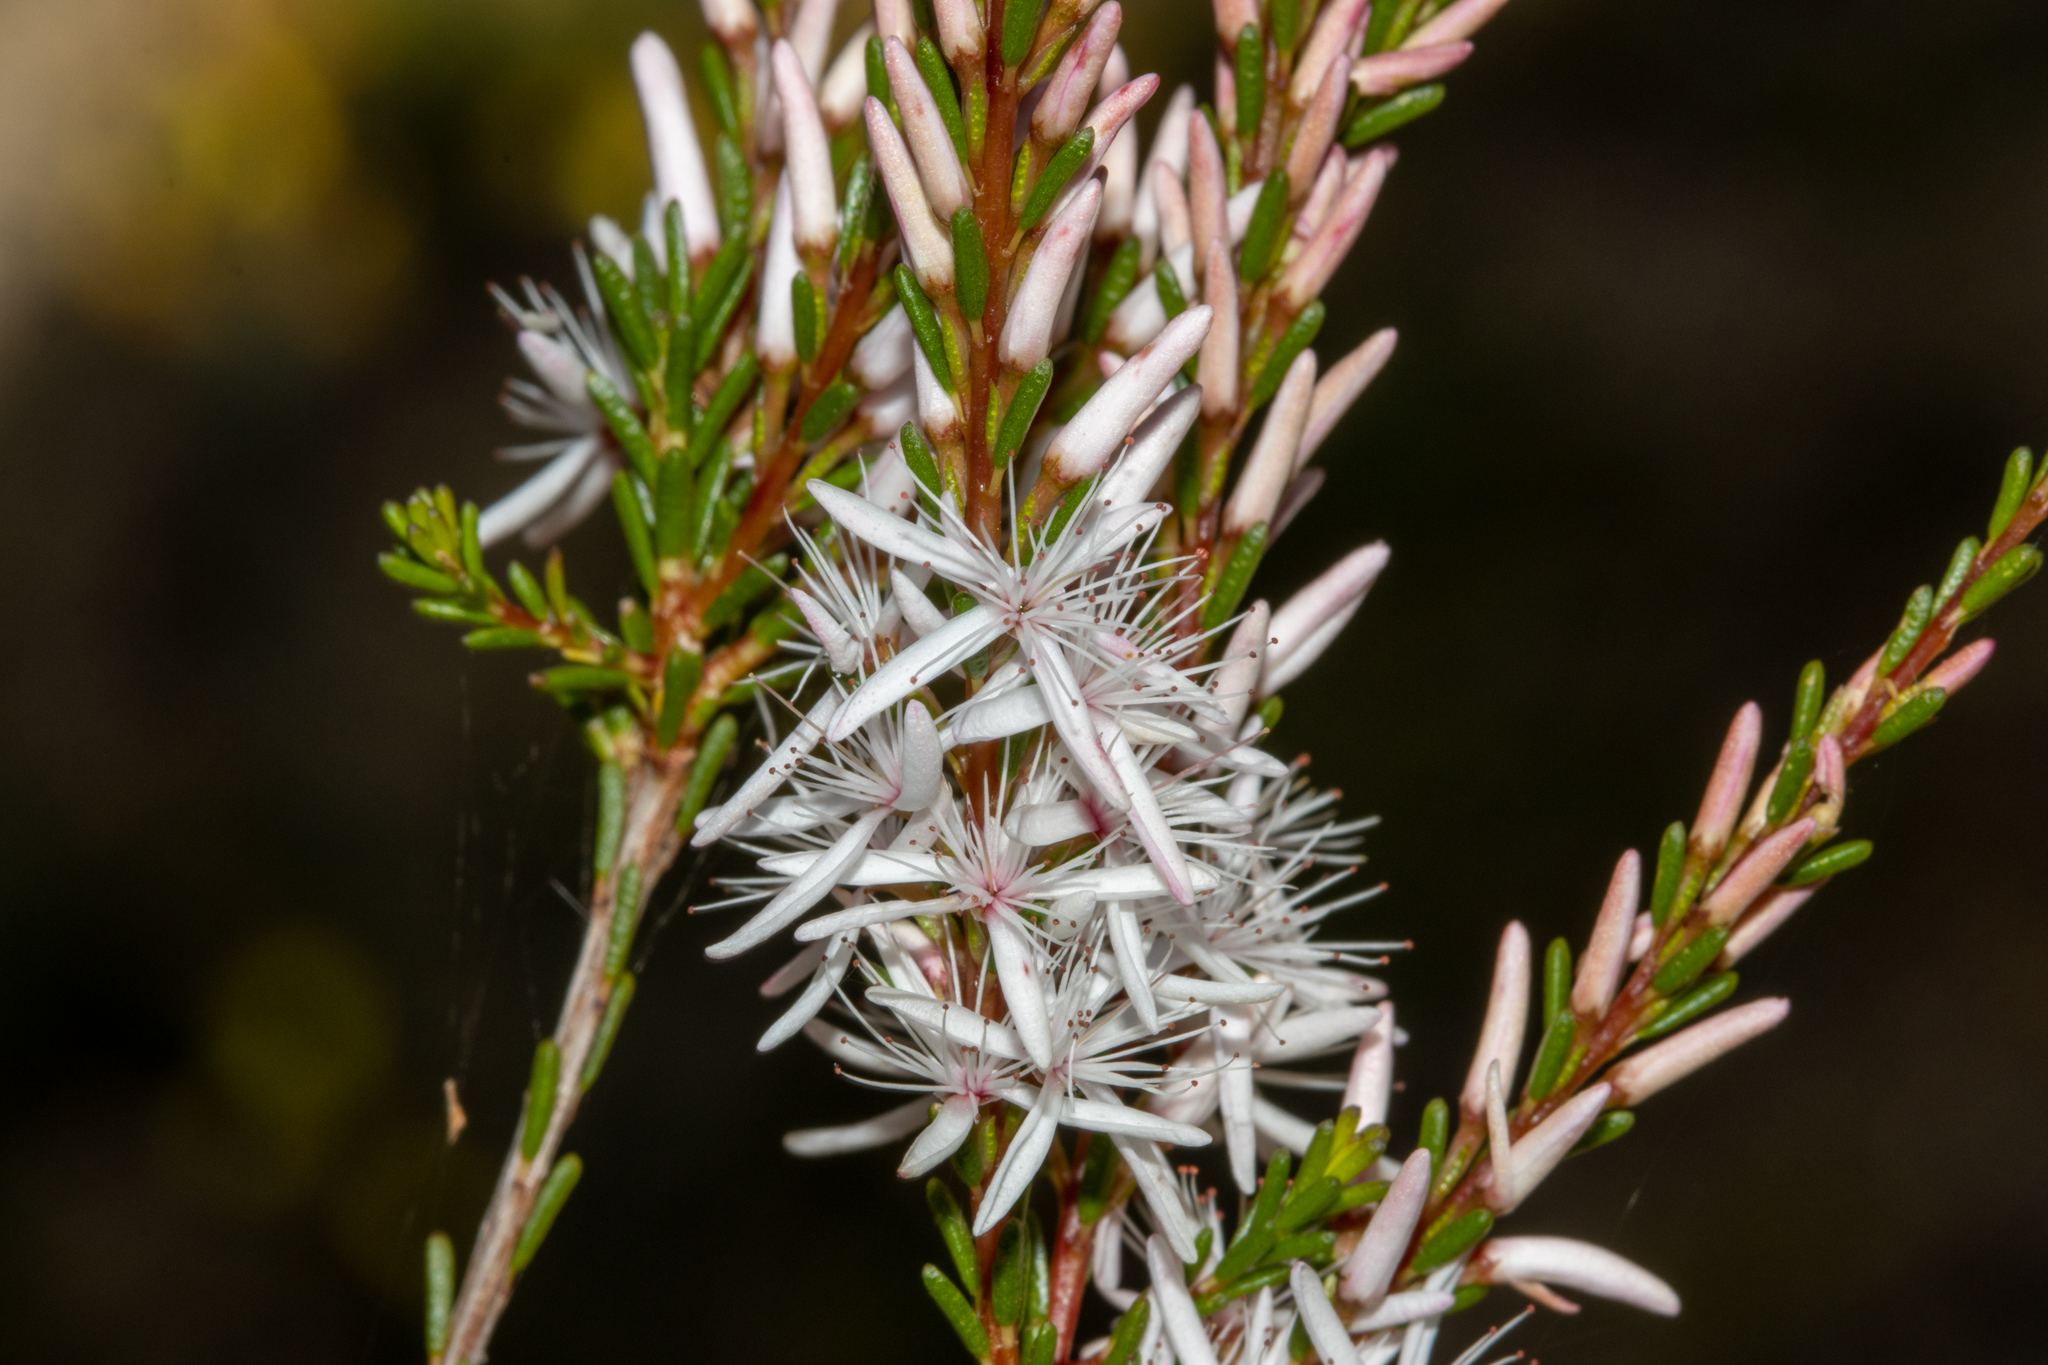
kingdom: Plantae
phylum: Tracheophyta
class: Magnoliopsida
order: Myrtales
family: Myrtaceae
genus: Calytrix
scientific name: Calytrix glaberrima
